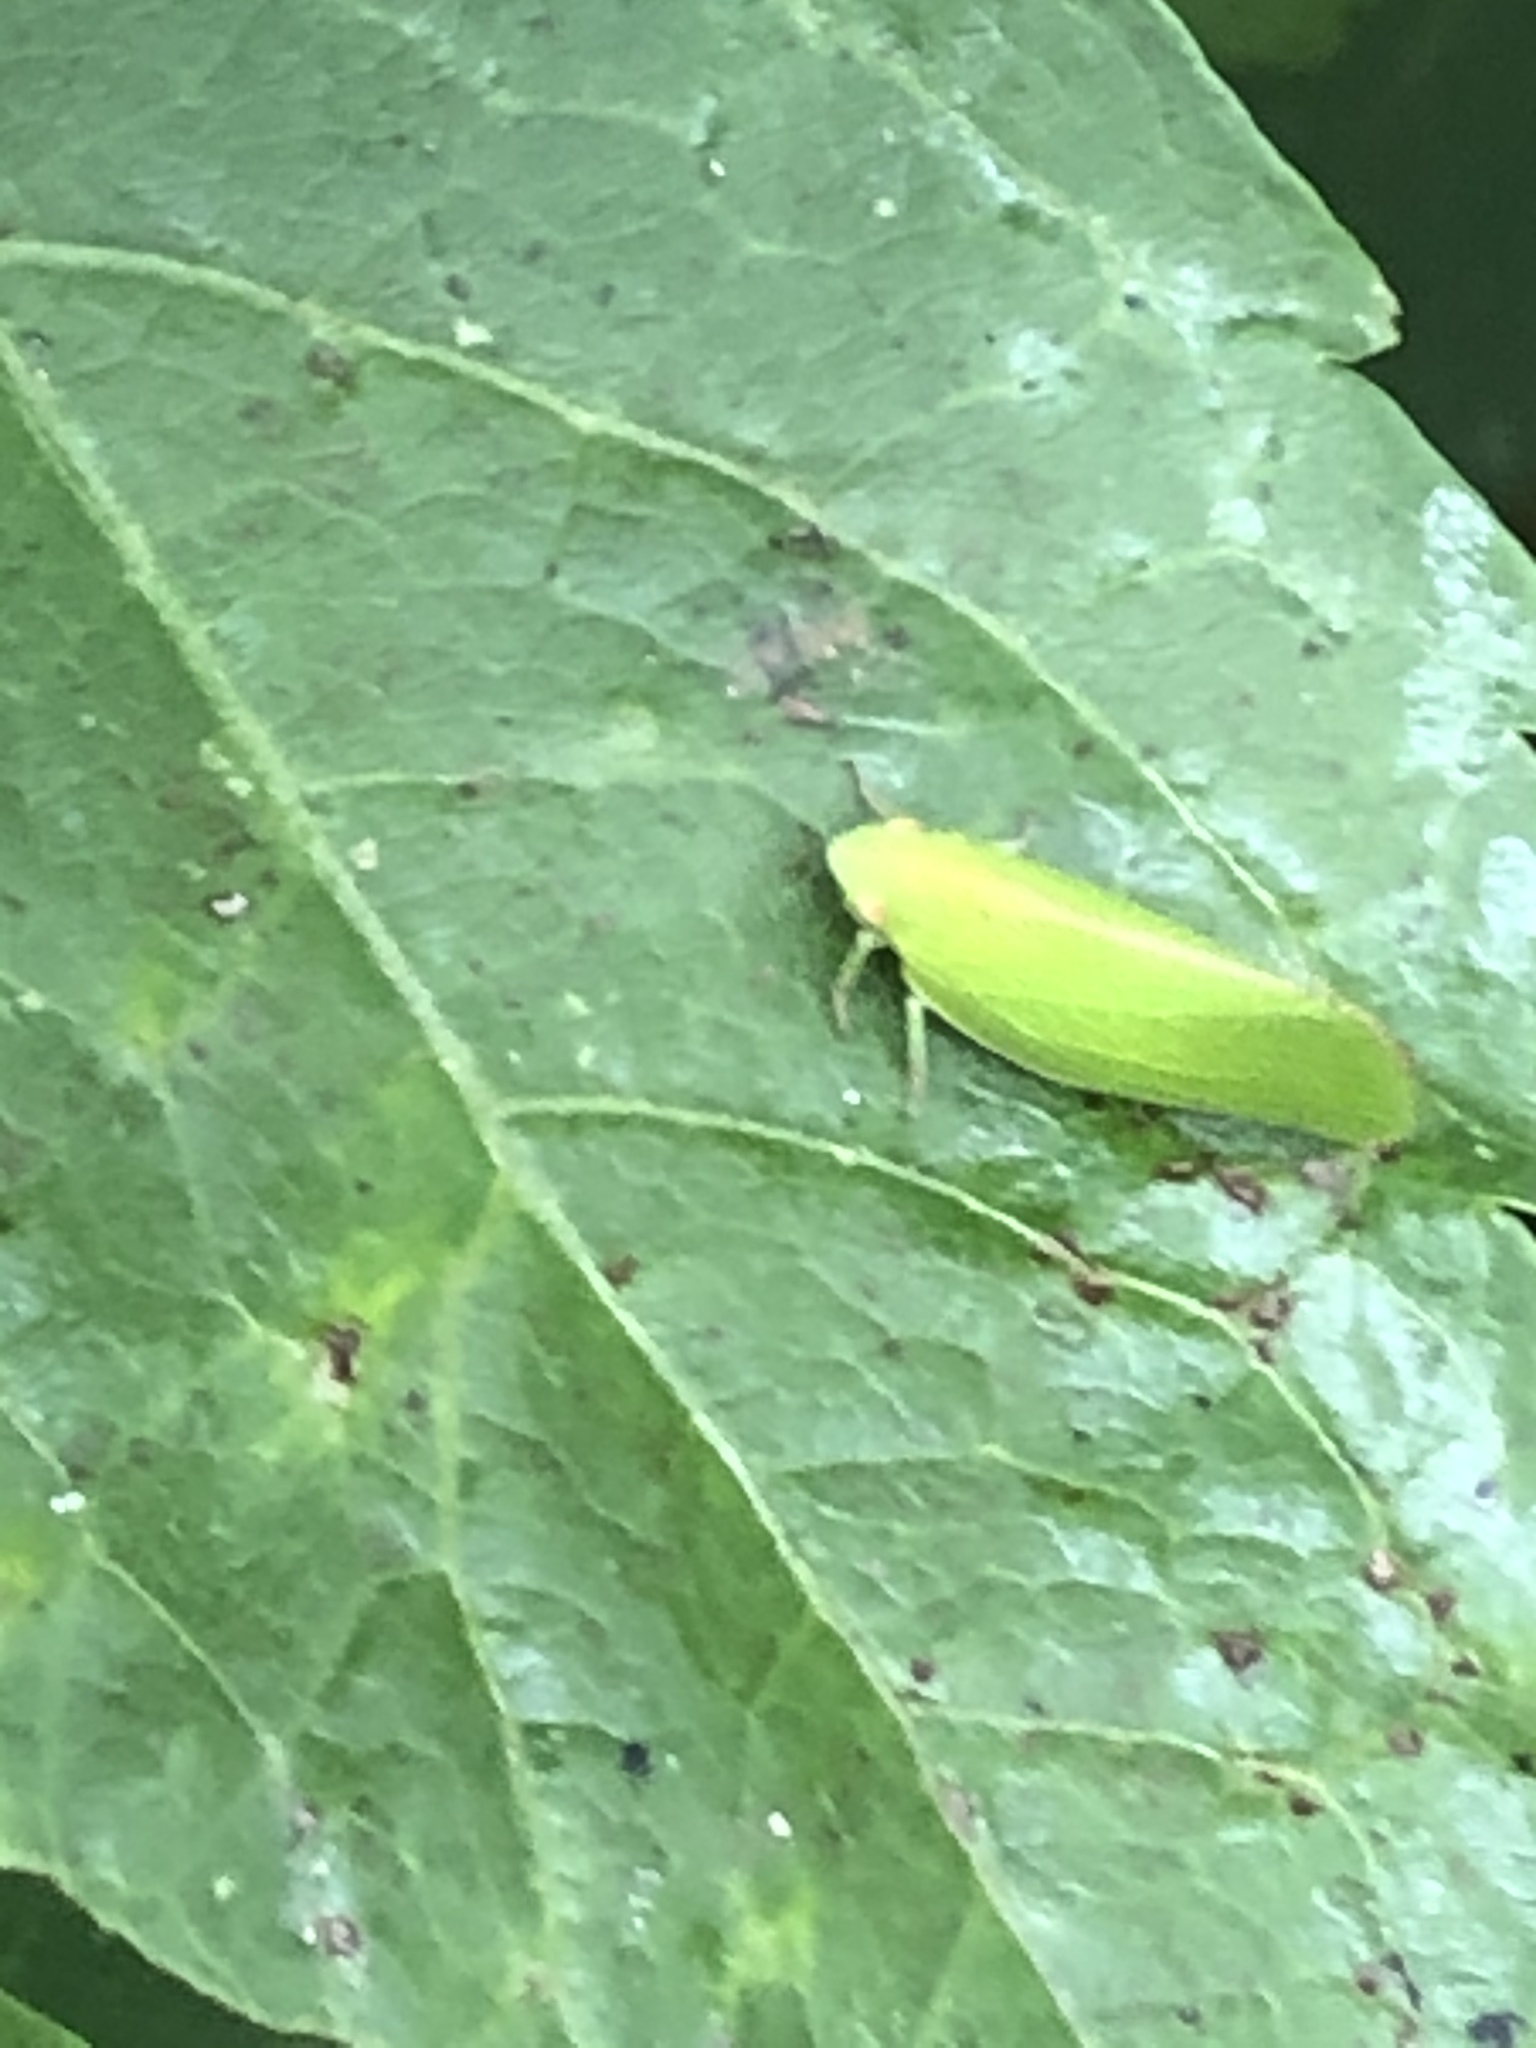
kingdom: Animalia
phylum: Arthropoda
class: Insecta
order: Hemiptera
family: Acanaloniidae
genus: Acanalonia
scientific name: Acanalonia conica
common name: Green cone-headed planthopper
